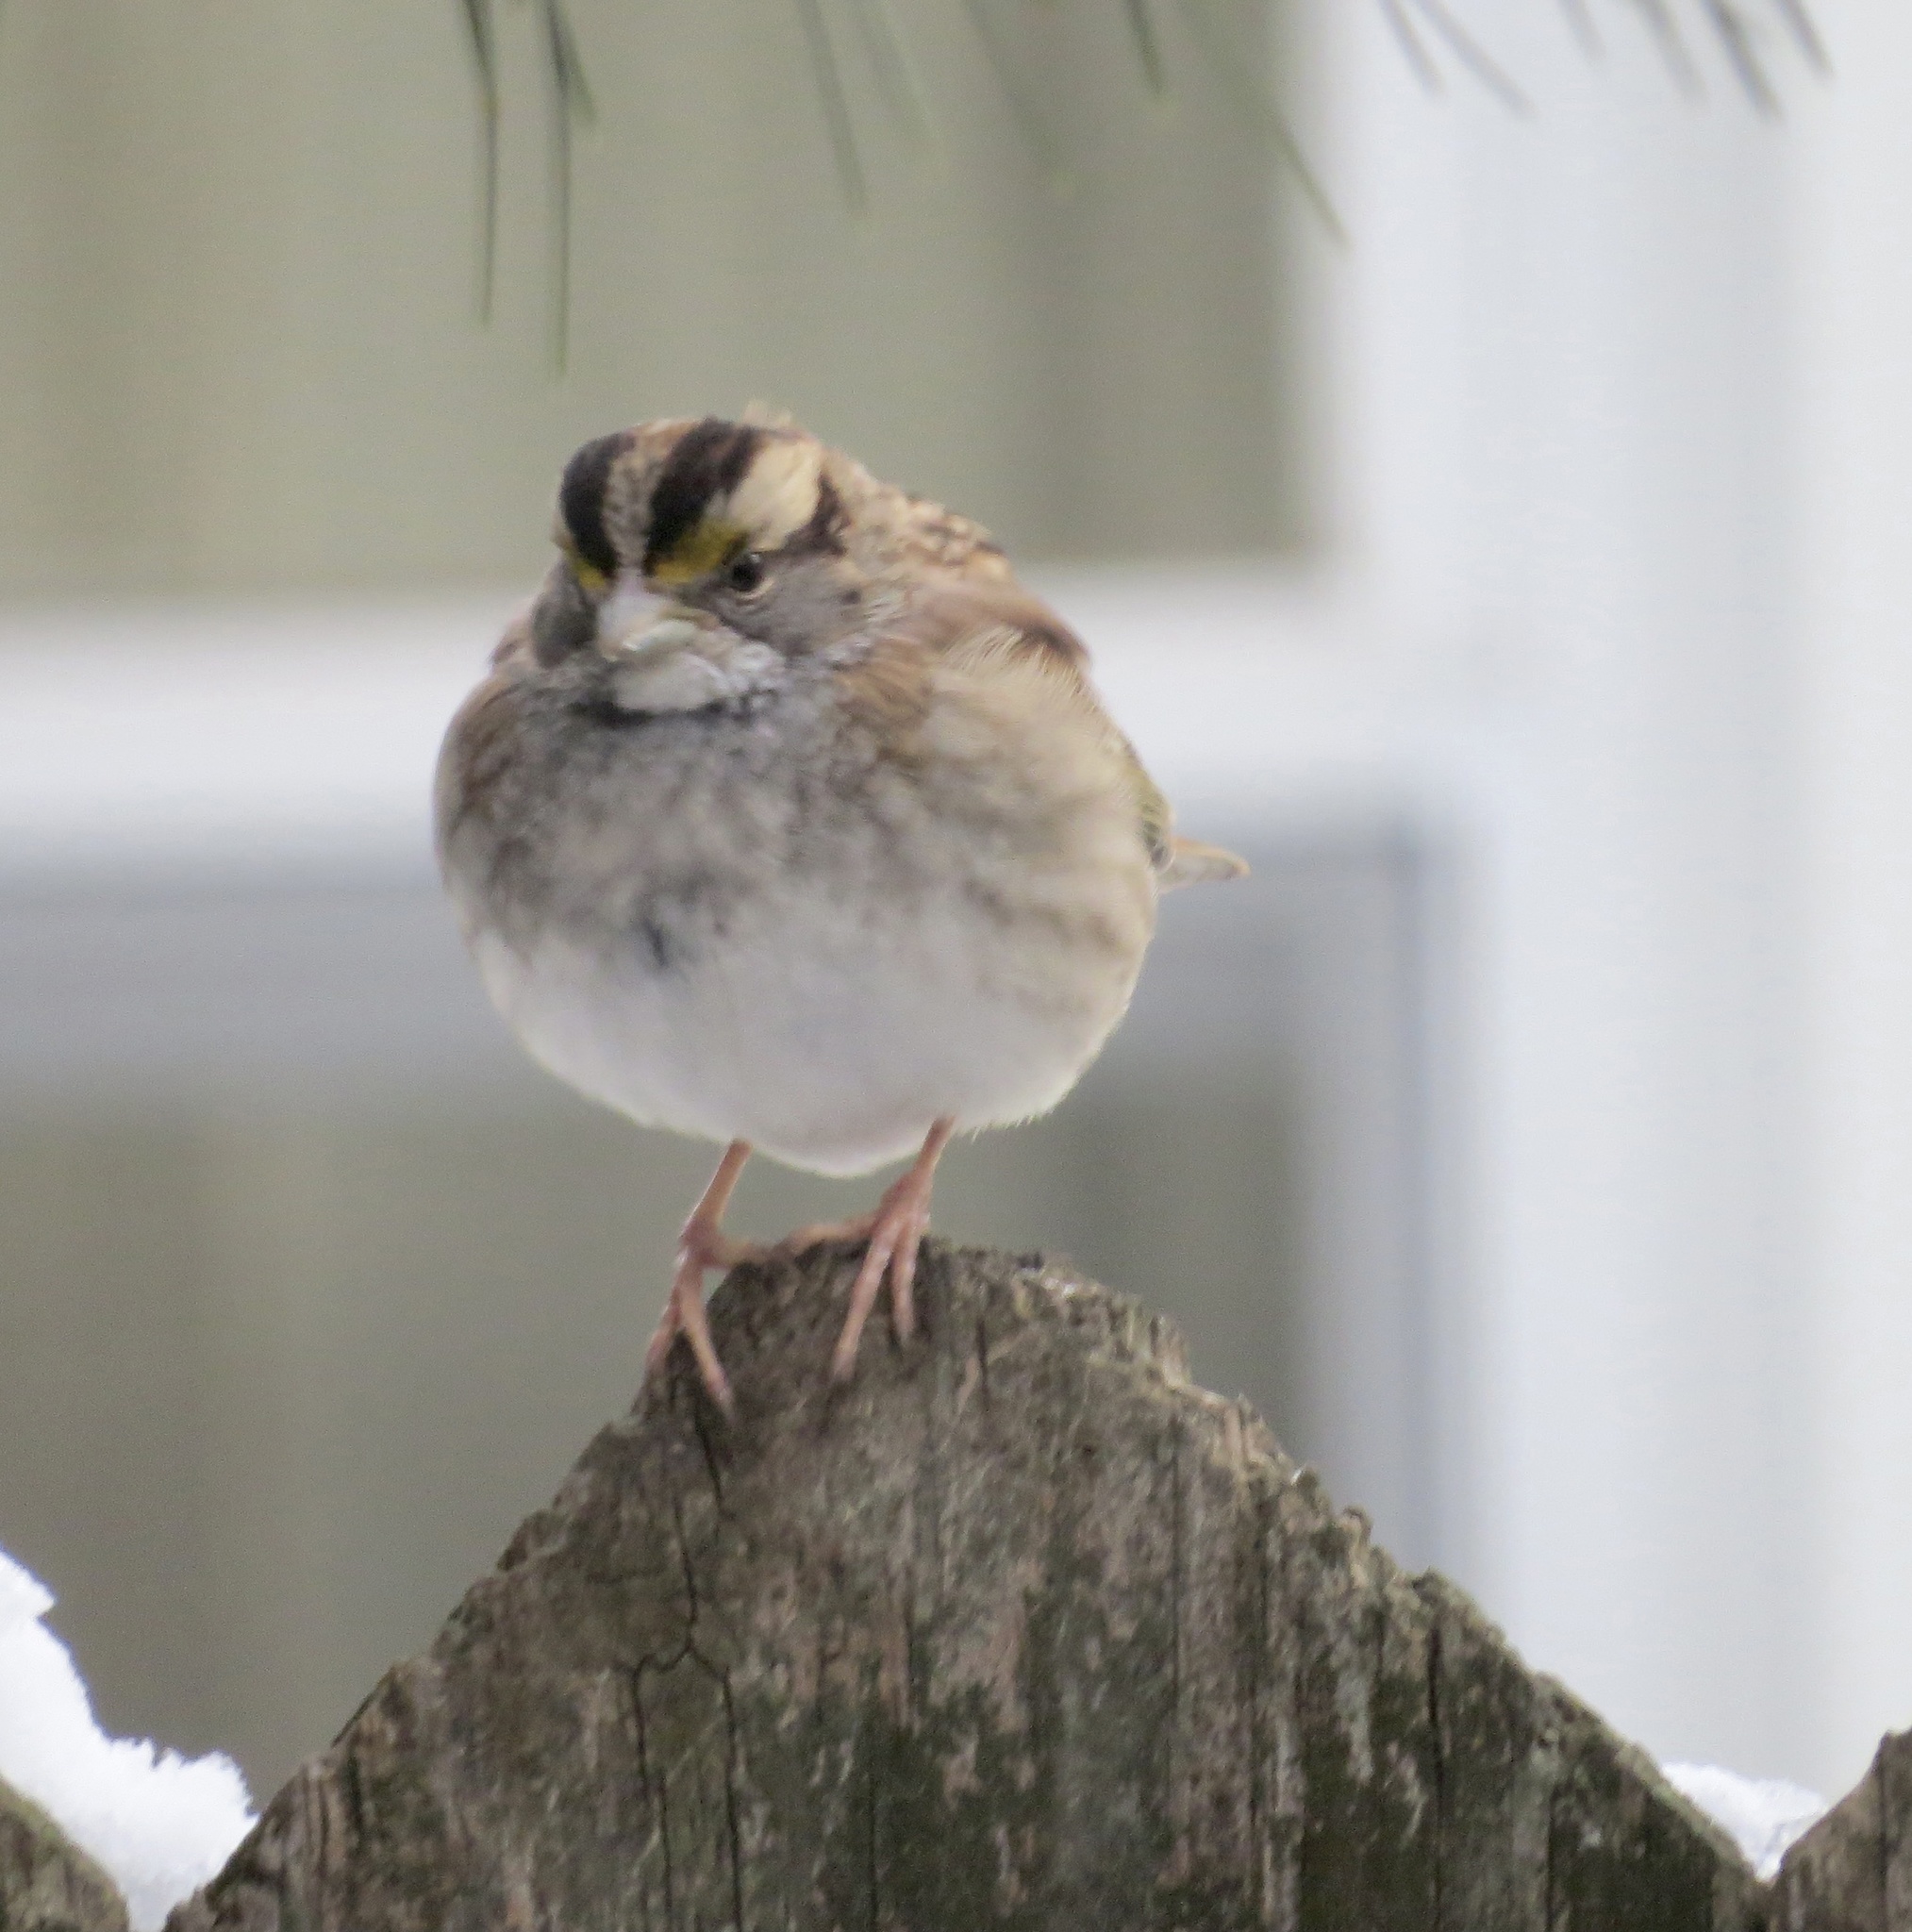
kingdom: Animalia
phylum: Chordata
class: Aves
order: Passeriformes
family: Passerellidae
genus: Zonotrichia
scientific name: Zonotrichia albicollis
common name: White-throated sparrow
